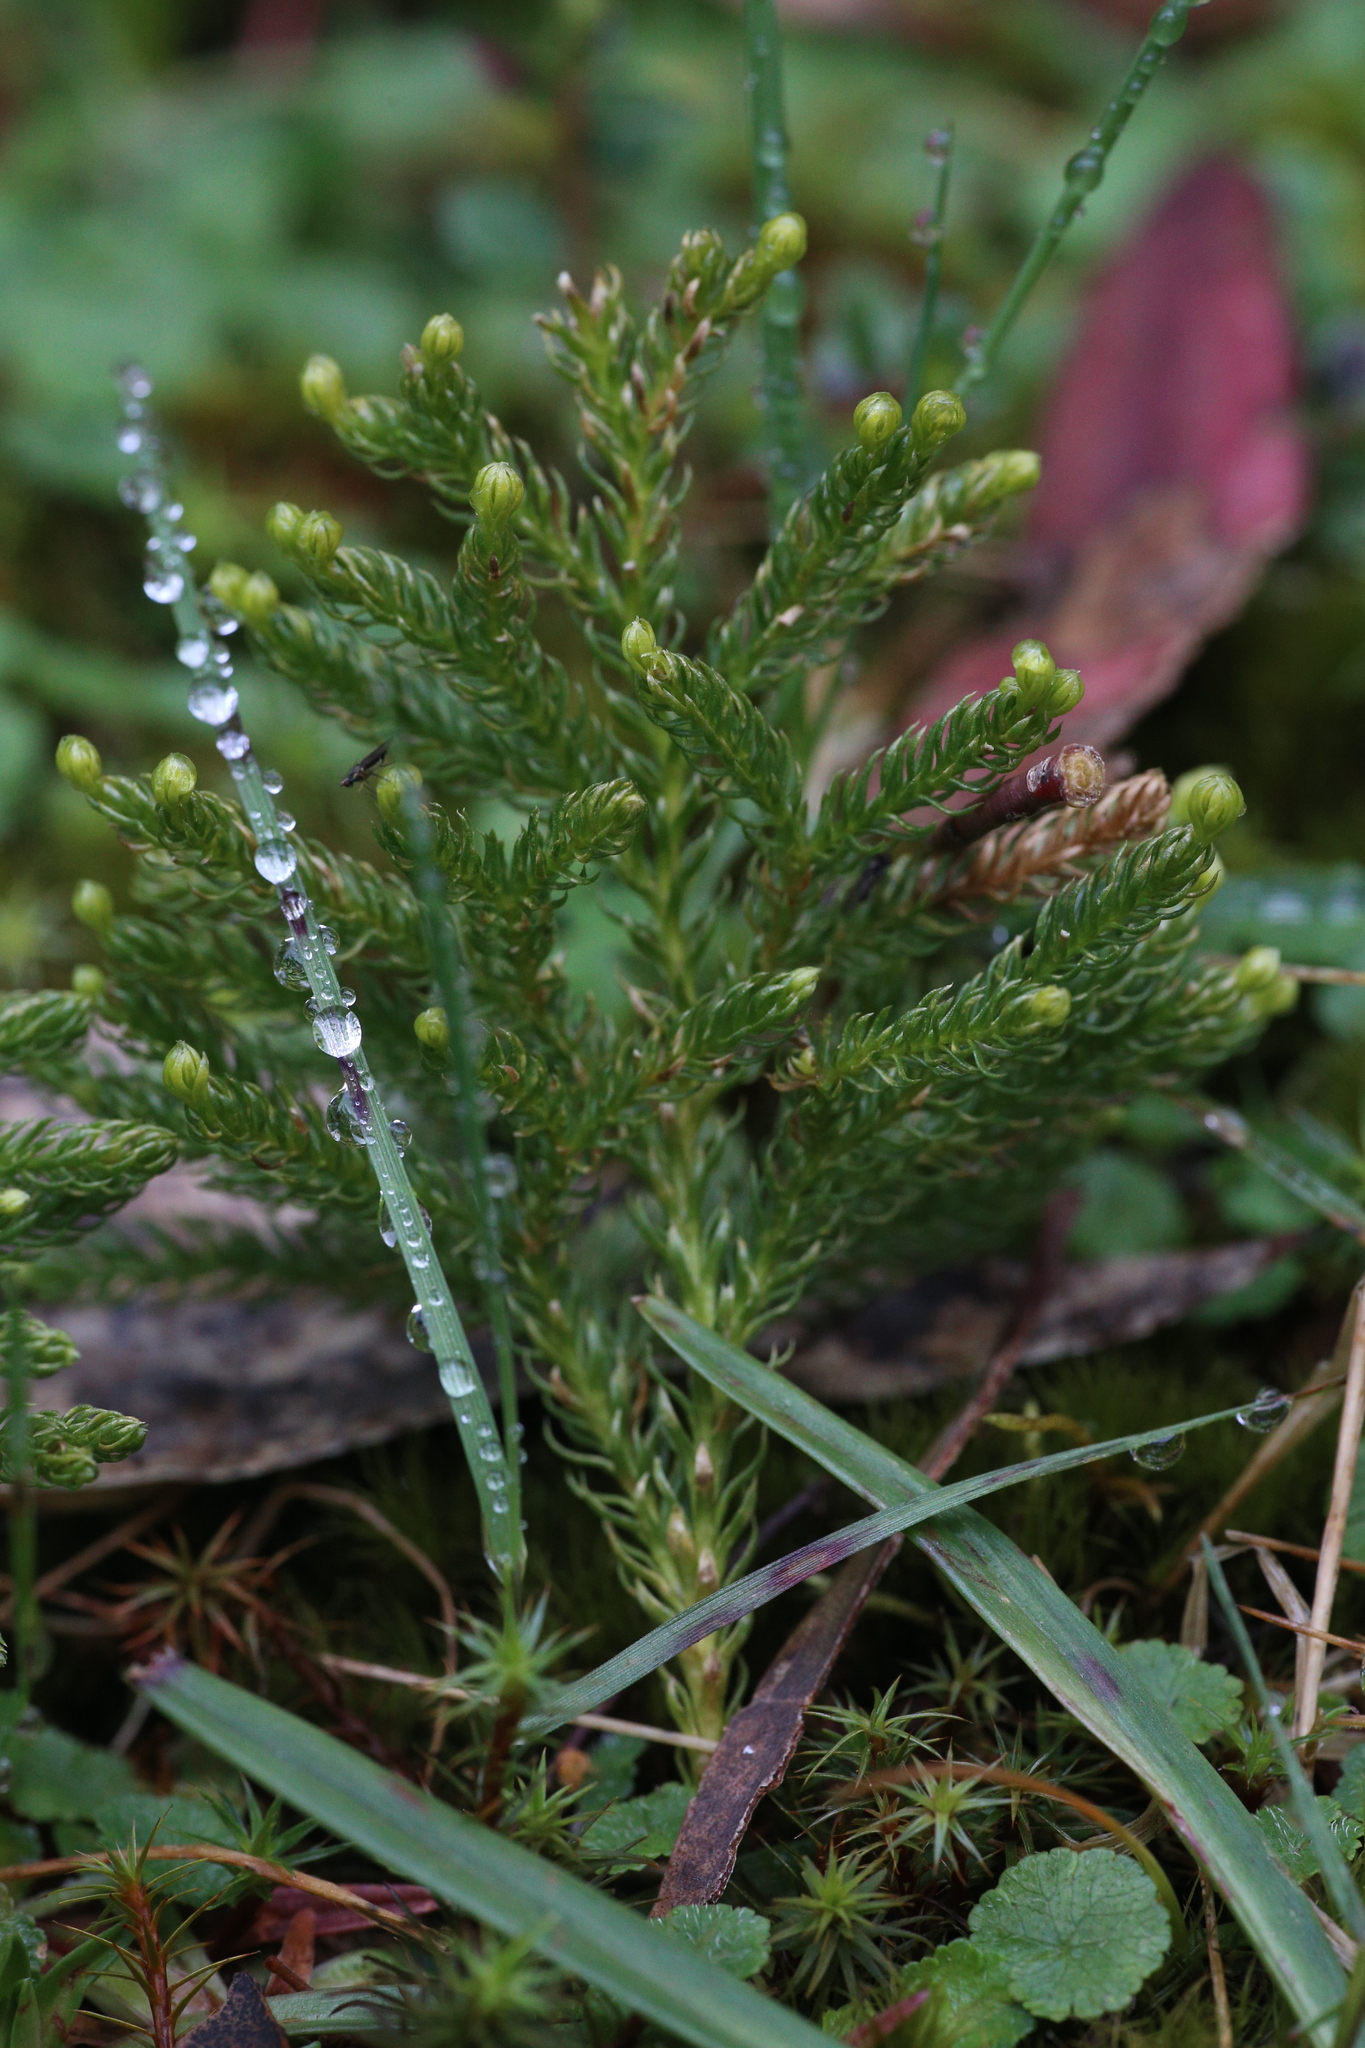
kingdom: Plantae
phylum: Tracheophyta
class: Lycopodiopsida
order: Lycopodiales
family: Lycopodiaceae
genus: Austrolycopodium
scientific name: Austrolycopodium fastigiatum
